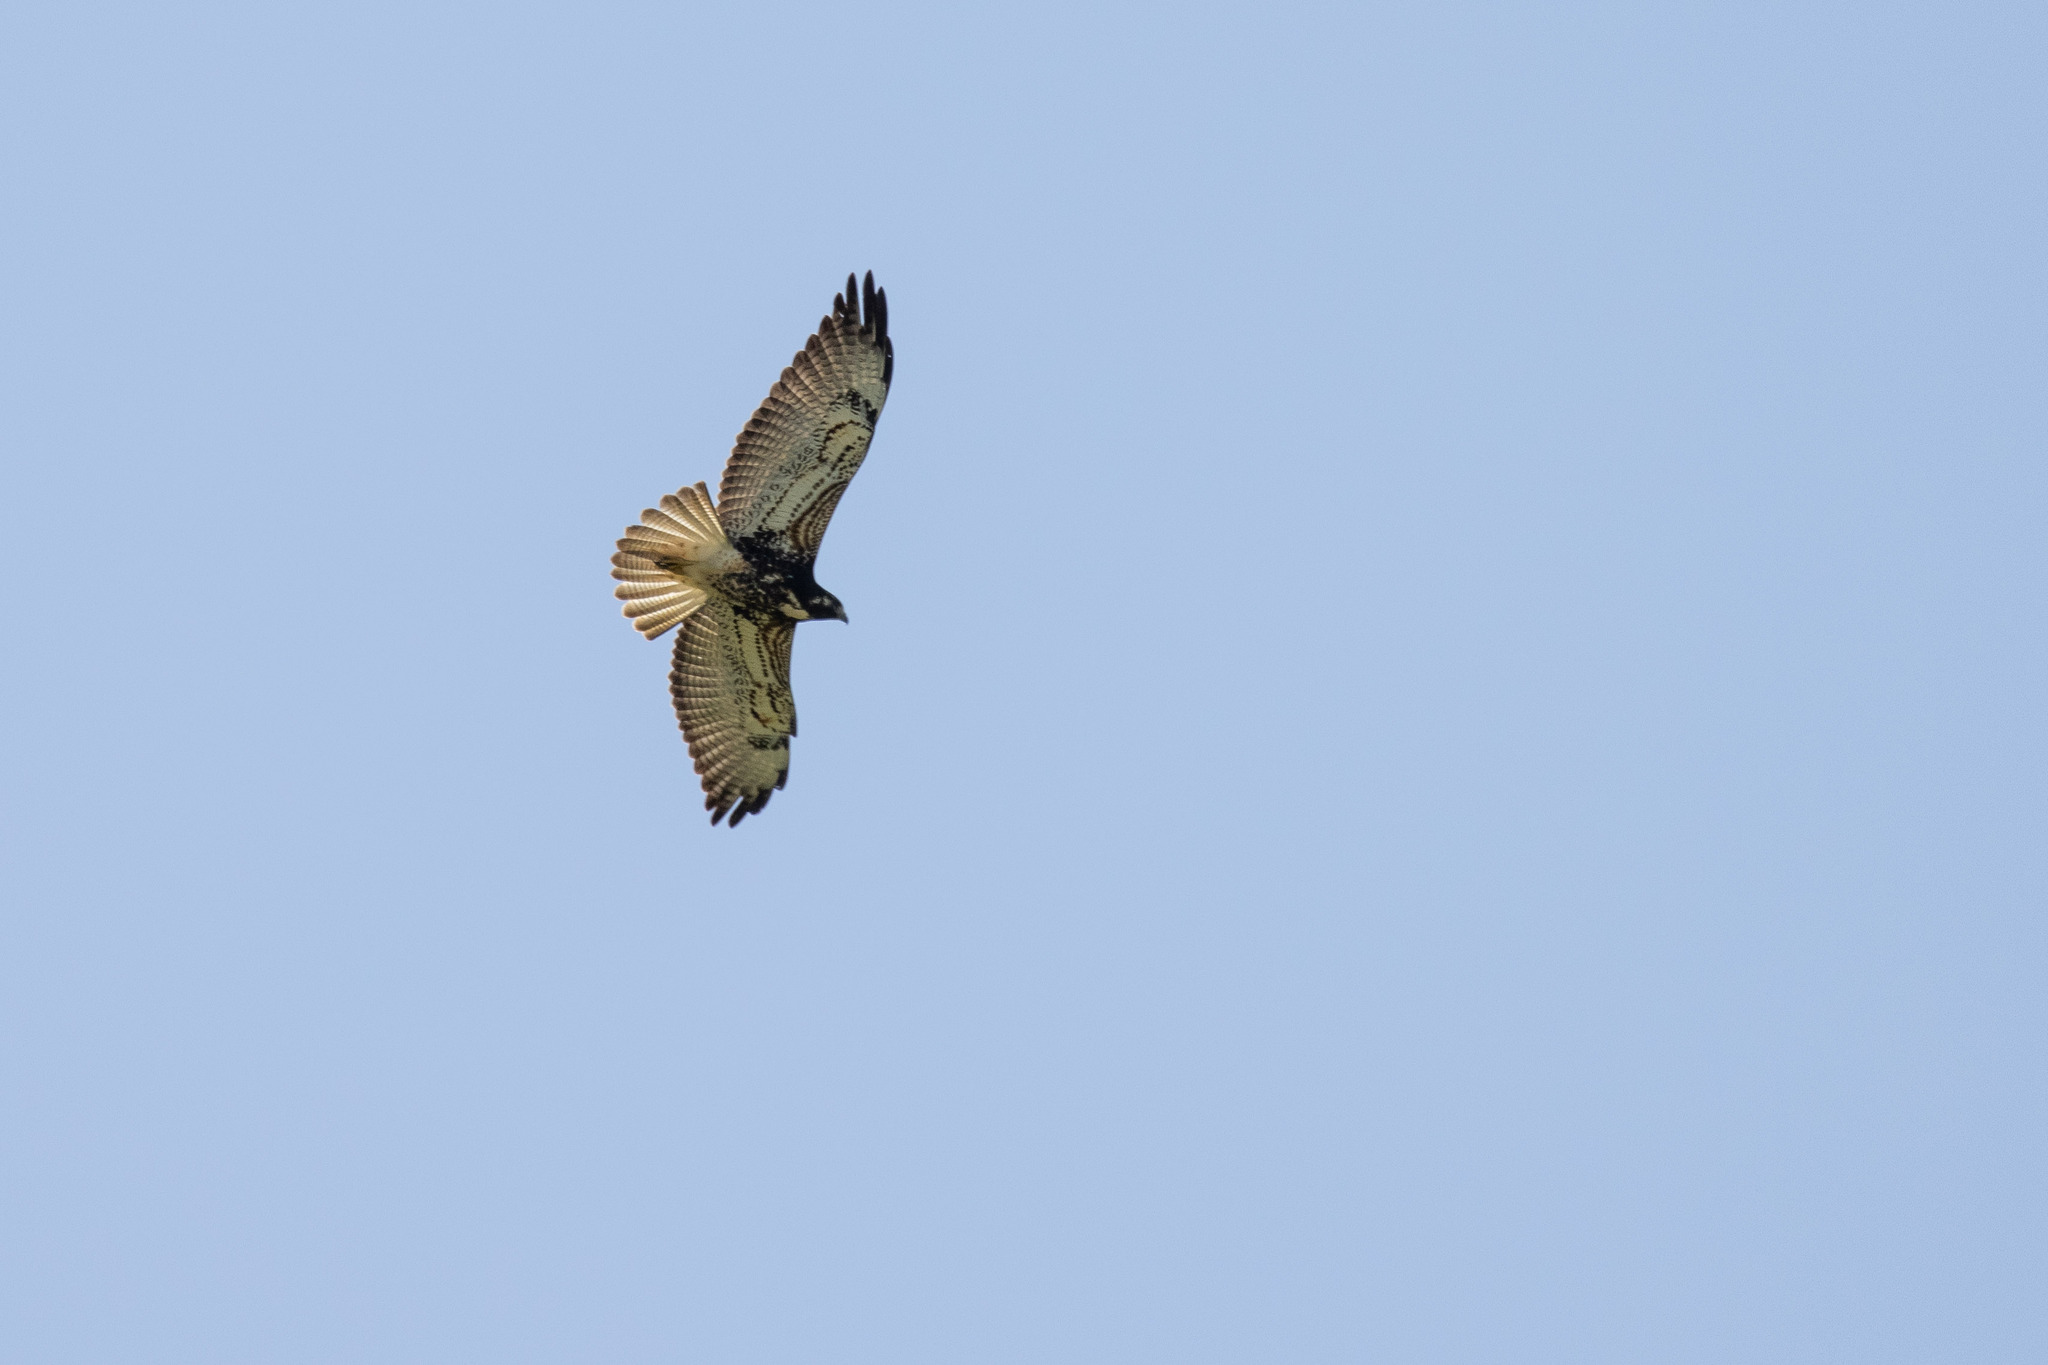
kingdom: Animalia
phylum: Chordata
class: Aves
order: Accipitriformes
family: Accipitridae
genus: Buteo
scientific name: Buteo albicaudatus
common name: White-tailed hawk
